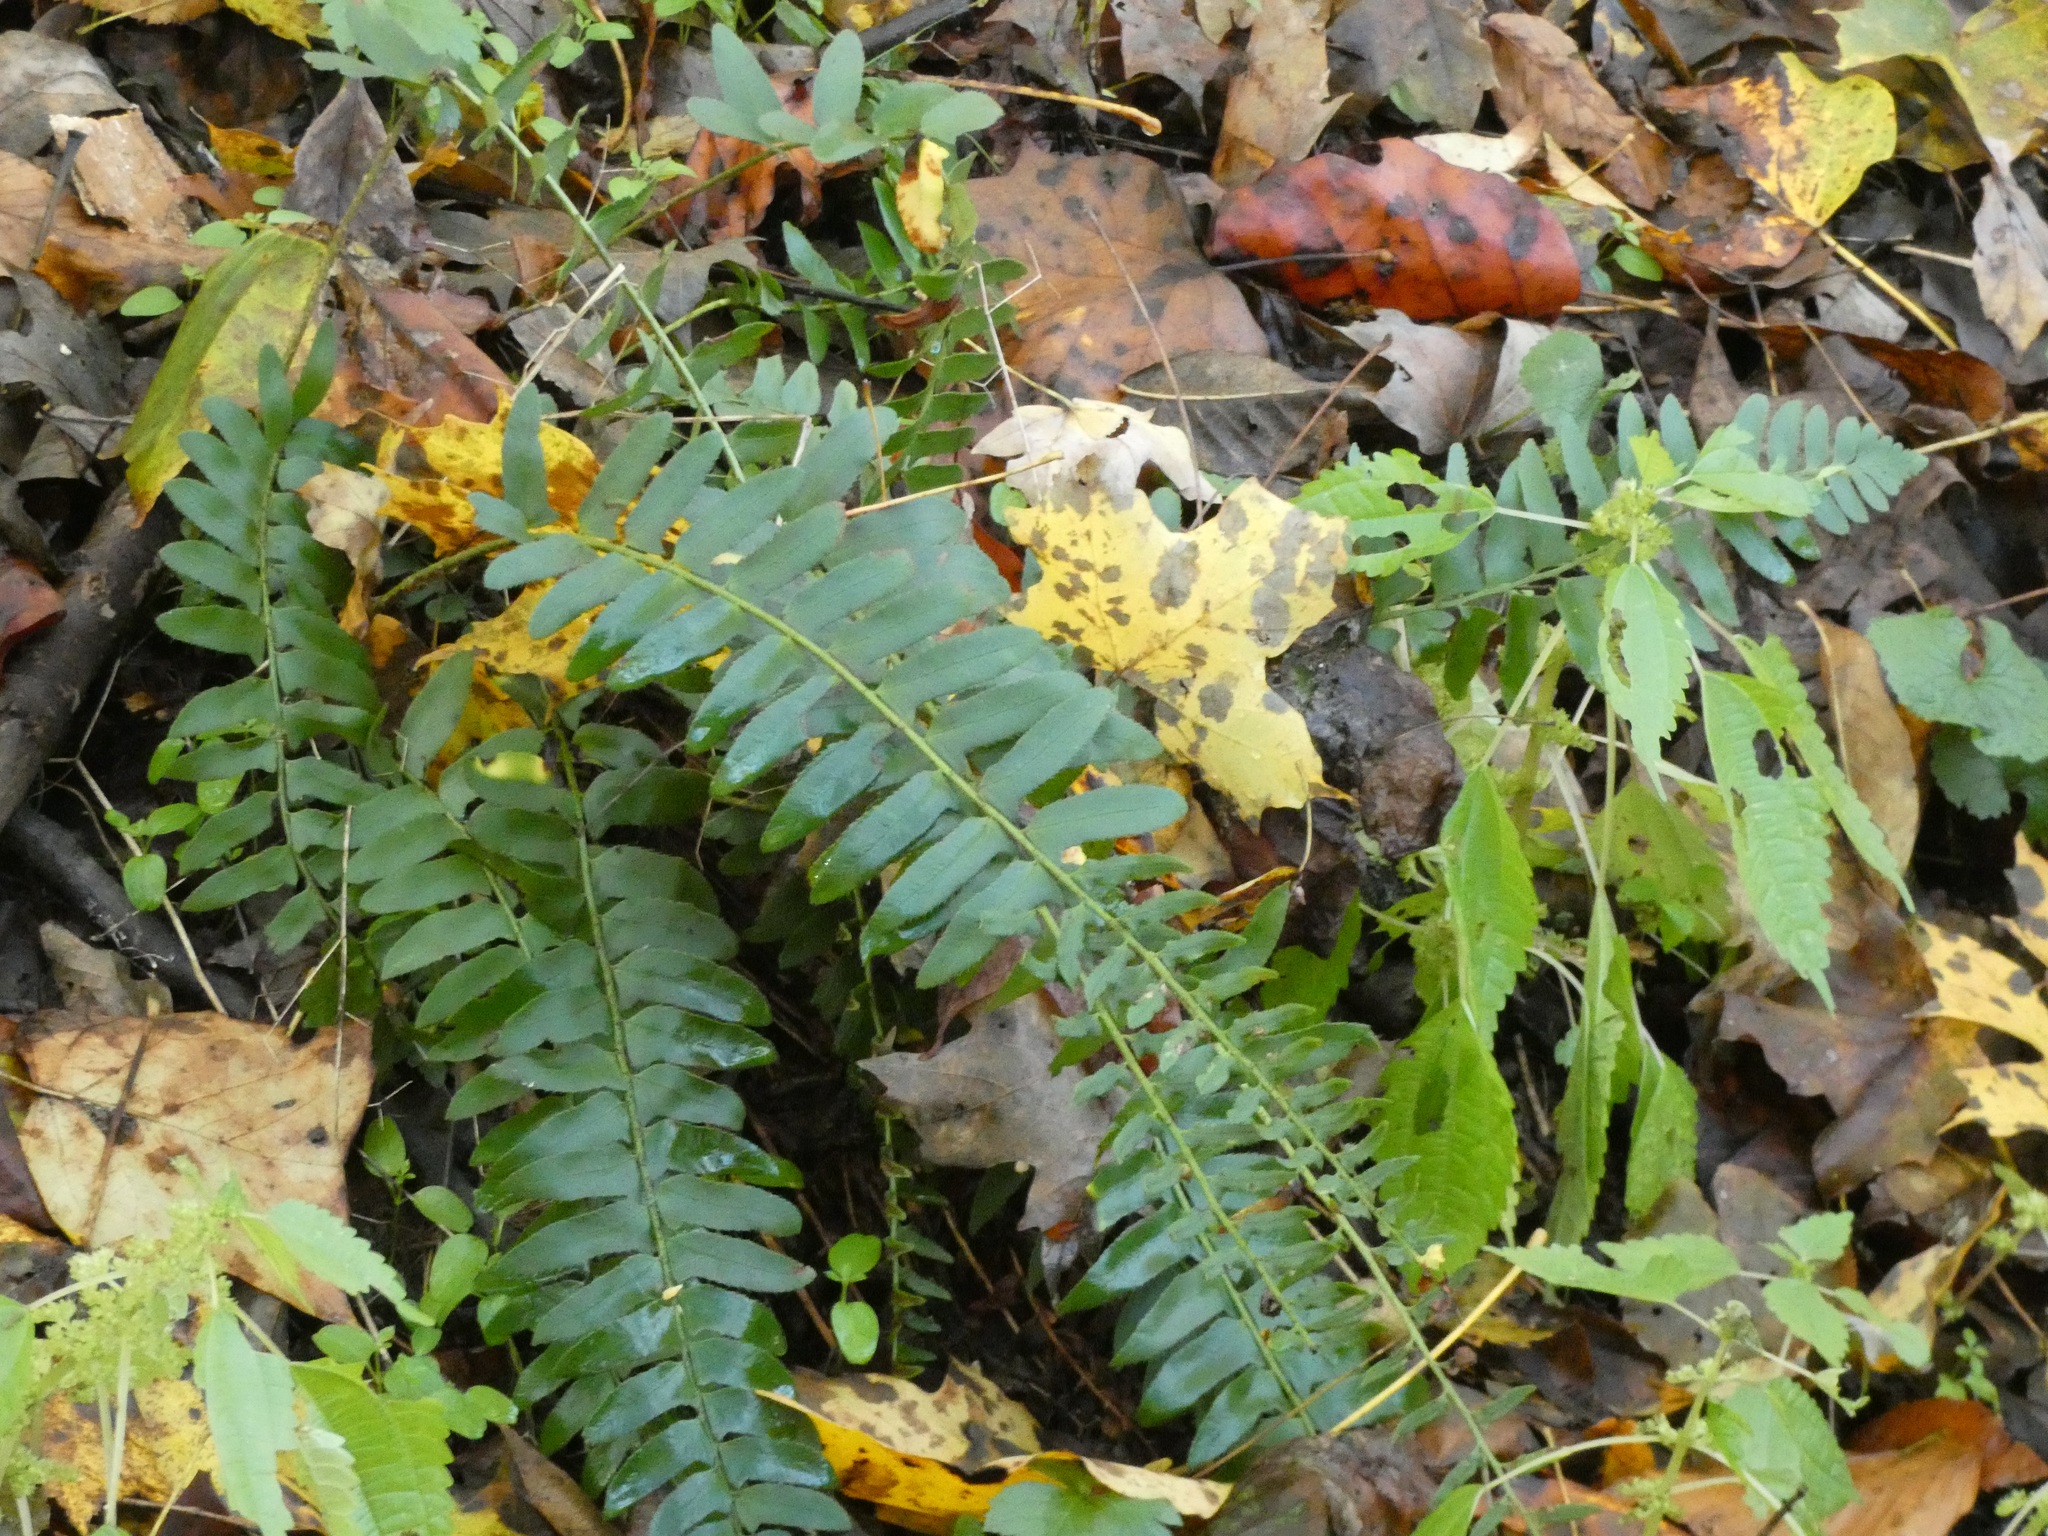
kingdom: Plantae
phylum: Tracheophyta
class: Polypodiopsida
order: Polypodiales
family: Dryopteridaceae
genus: Polystichum
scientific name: Polystichum acrostichoides
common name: Christmas fern
